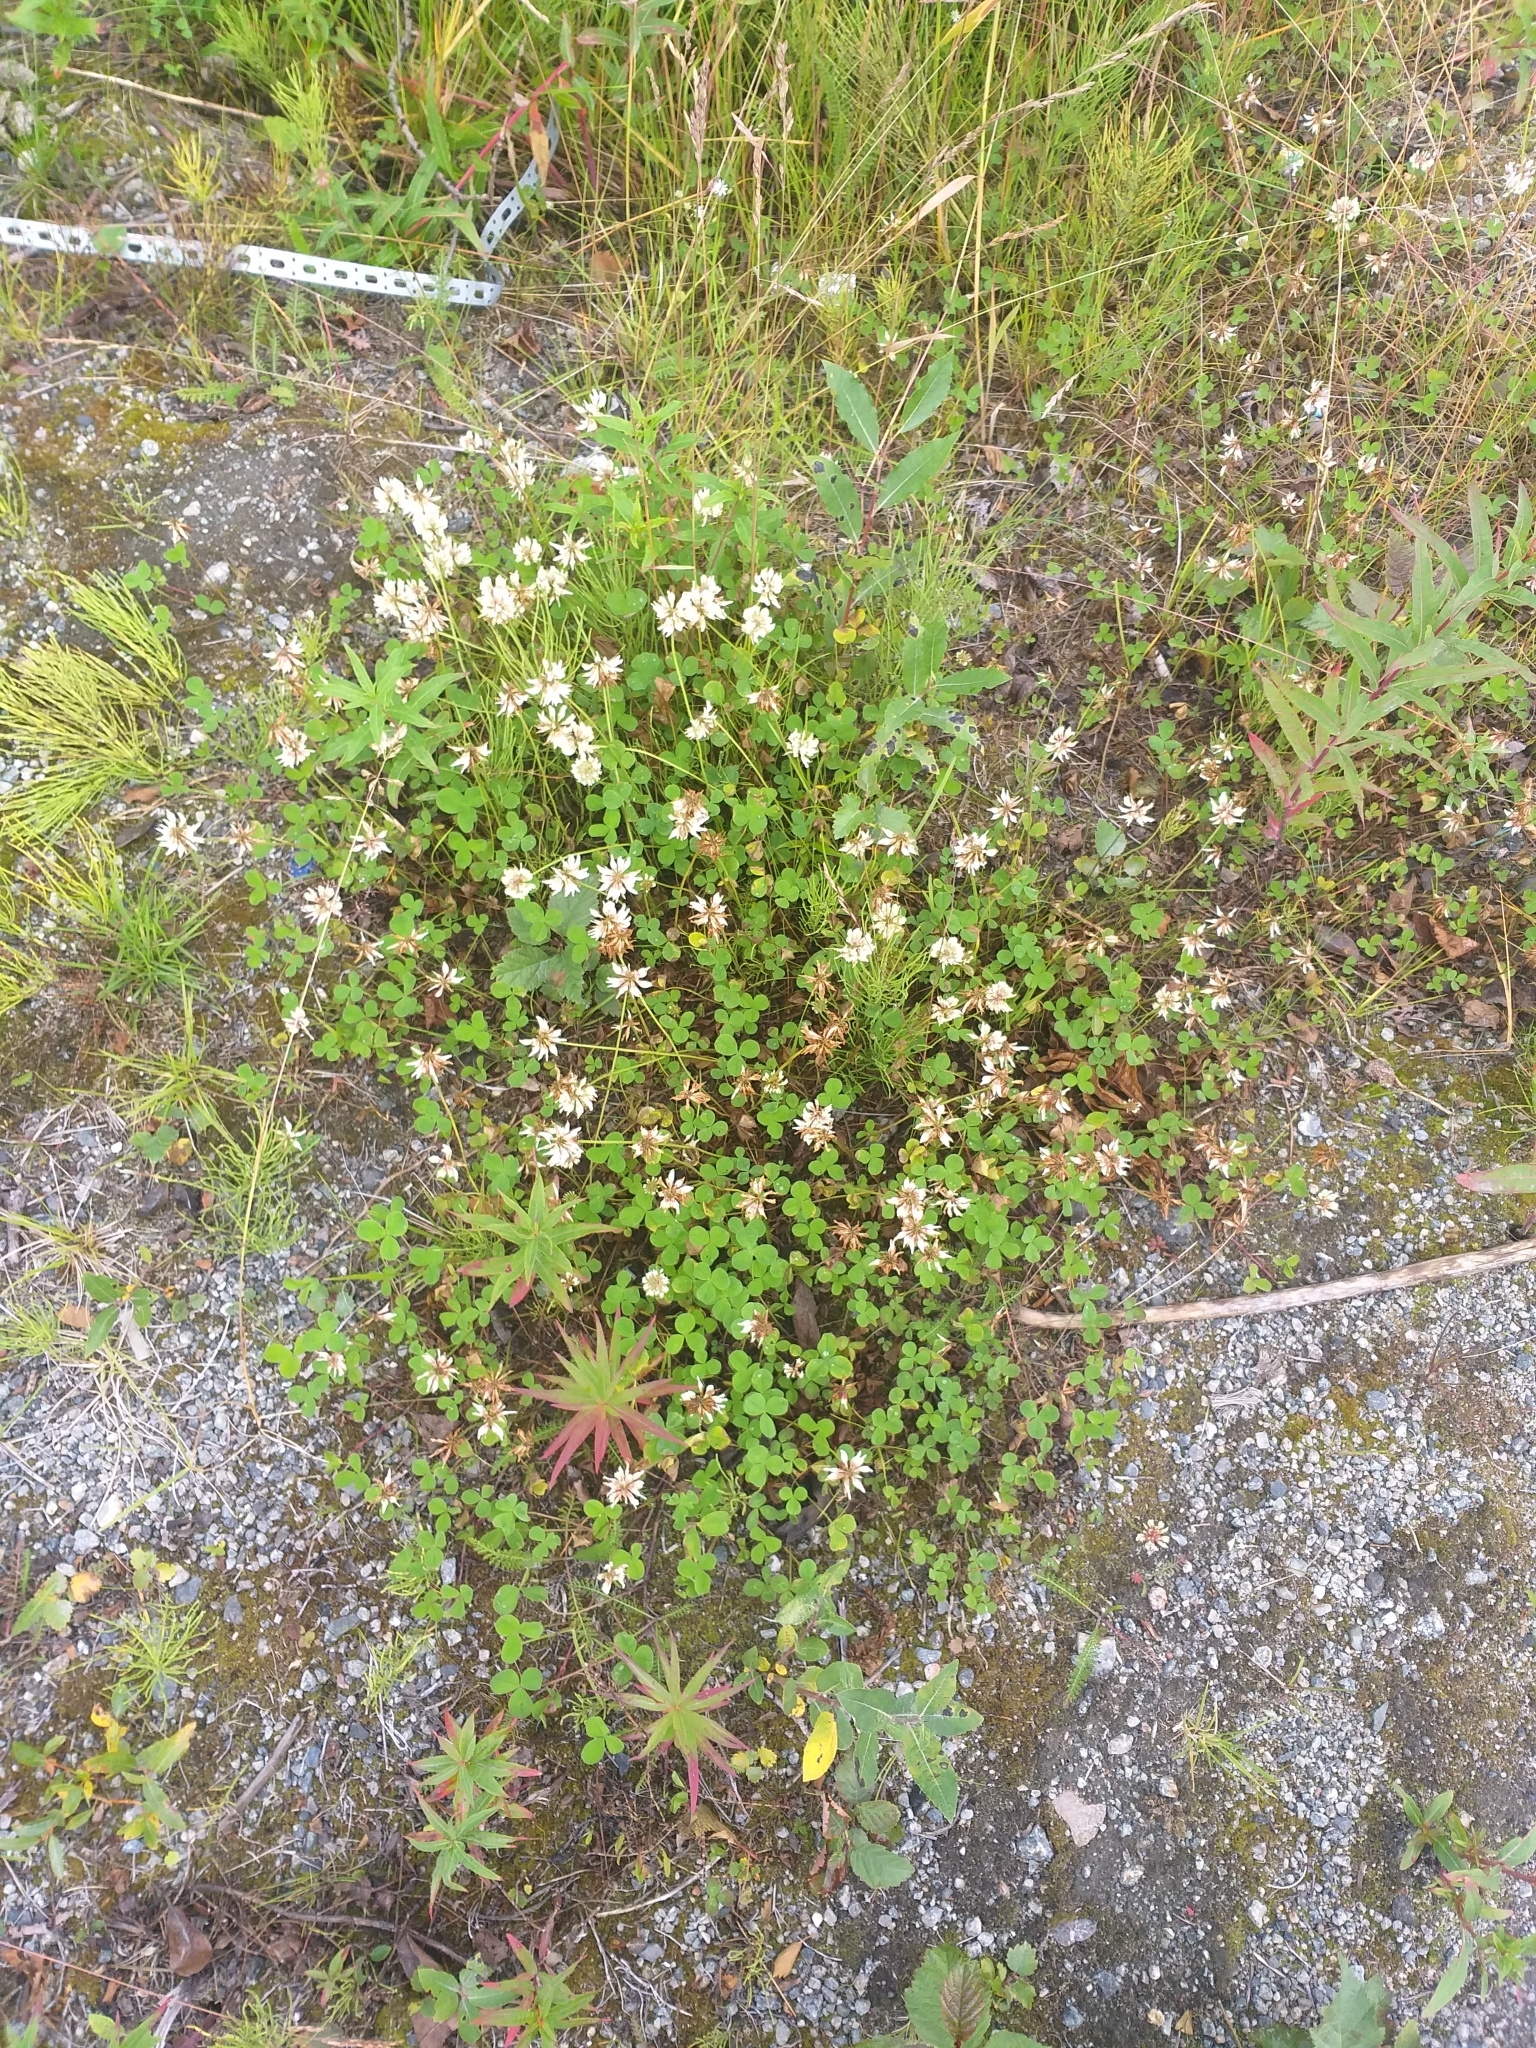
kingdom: Plantae
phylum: Tracheophyta
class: Magnoliopsida
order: Fabales
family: Fabaceae
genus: Trifolium
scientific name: Trifolium repens
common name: White clover
